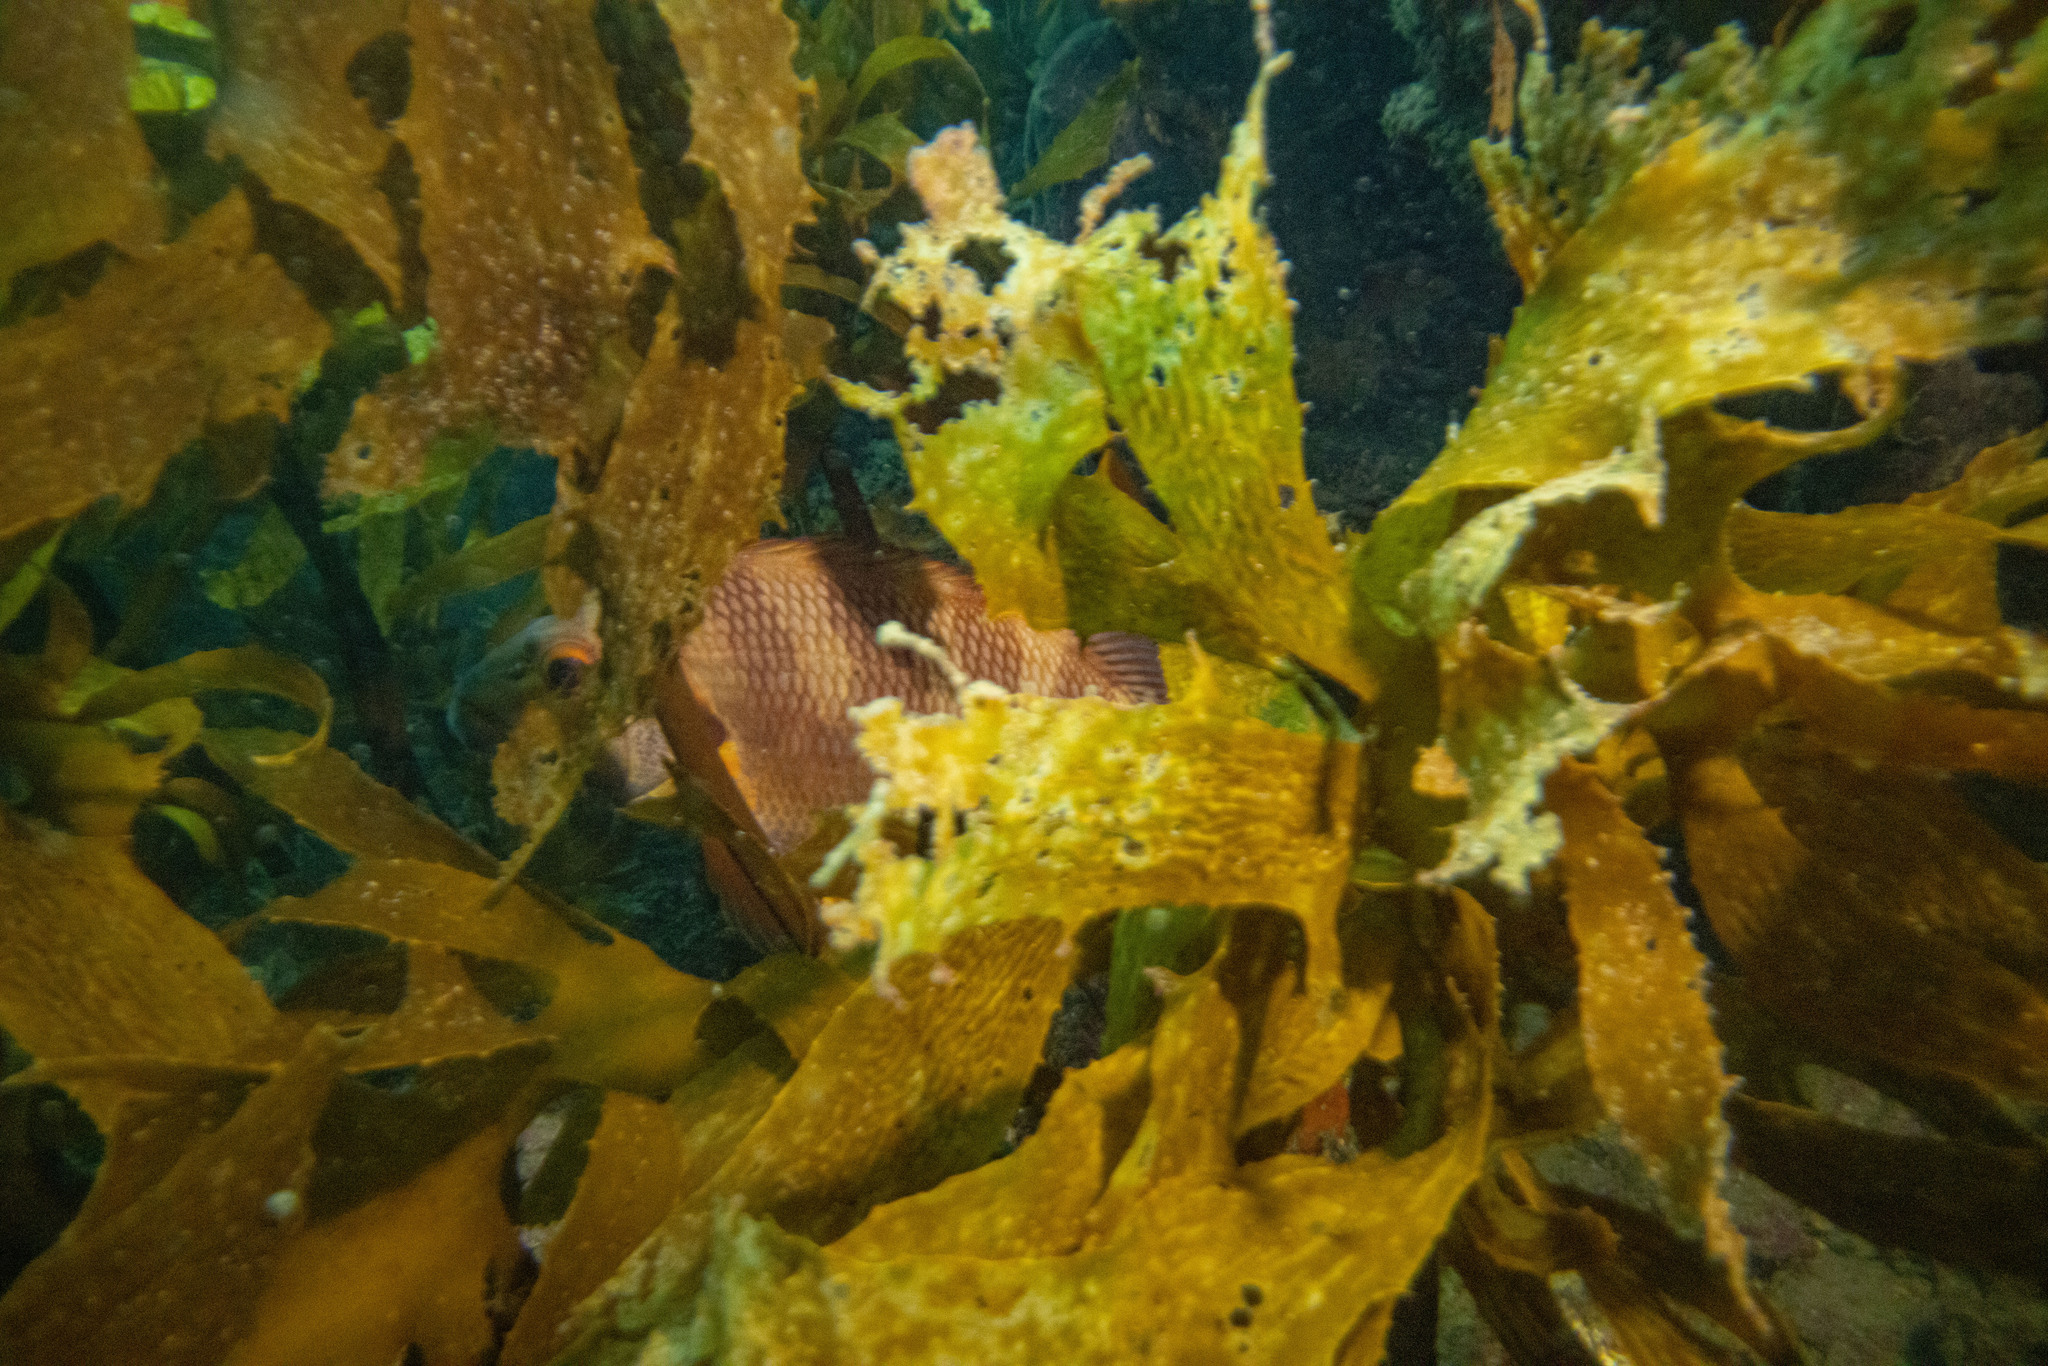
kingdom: Animalia
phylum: Chordata
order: Perciformes
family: Cheilodactylidae
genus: Cheilodactylus
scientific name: Cheilodactylus spectabilis
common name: Red moki
